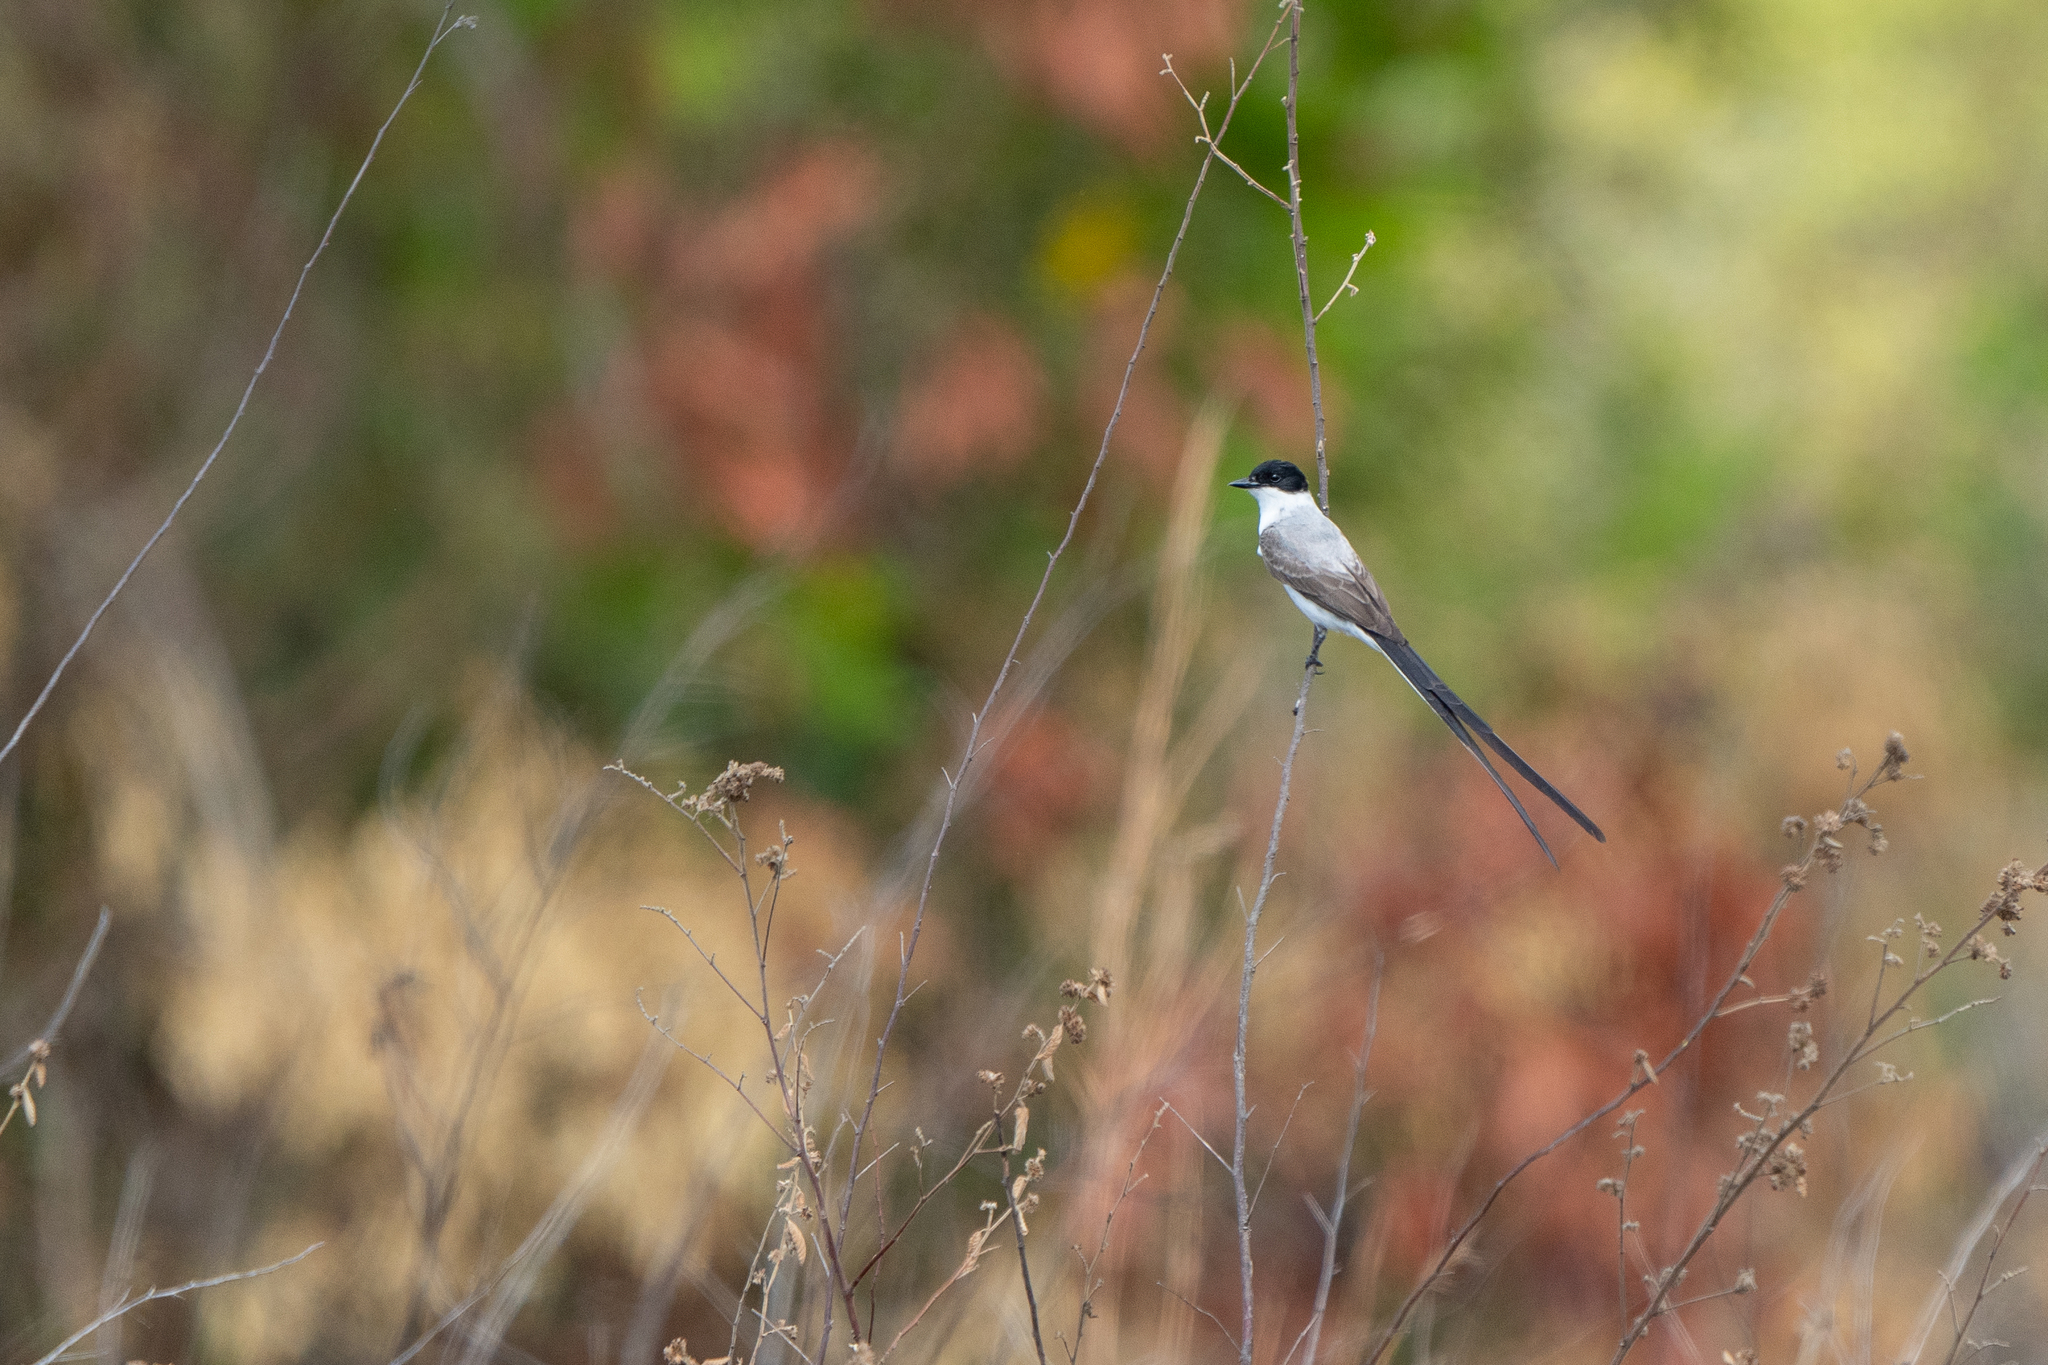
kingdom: Animalia
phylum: Chordata
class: Aves
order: Passeriformes
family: Tyrannidae
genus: Tyrannus
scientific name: Tyrannus savana
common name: Fork-tailed flycatcher
